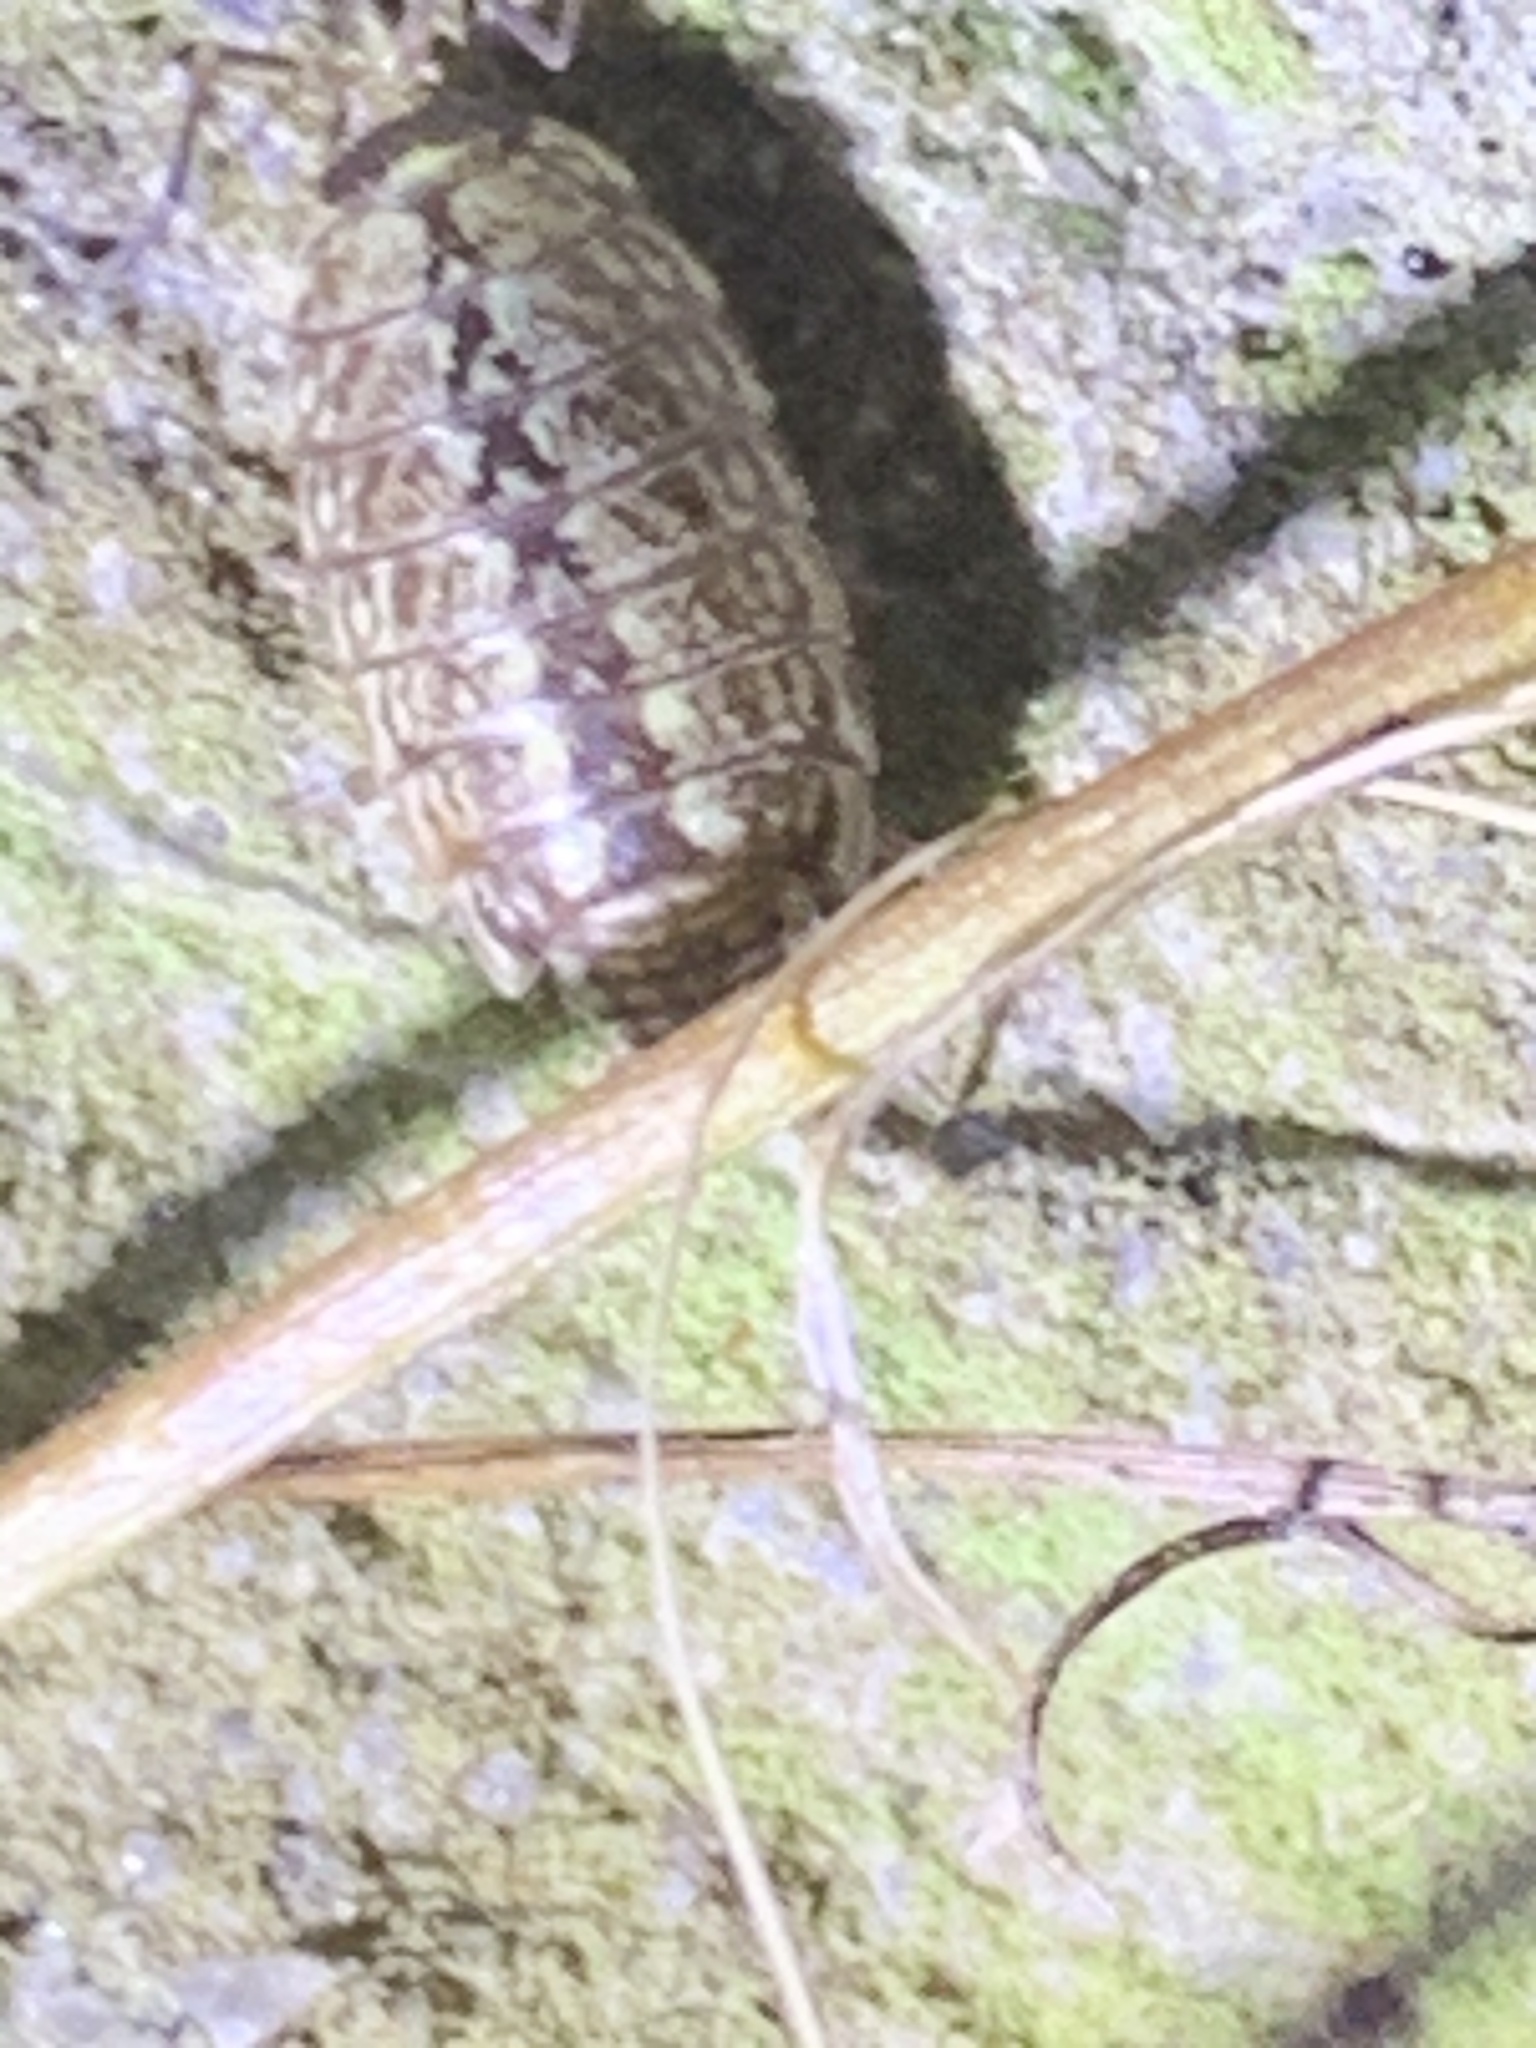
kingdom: Animalia
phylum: Arthropoda
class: Malacostraca
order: Isopoda
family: Philosciidae
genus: Philoscia
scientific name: Philoscia muscorum
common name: Common striped woodlouse
